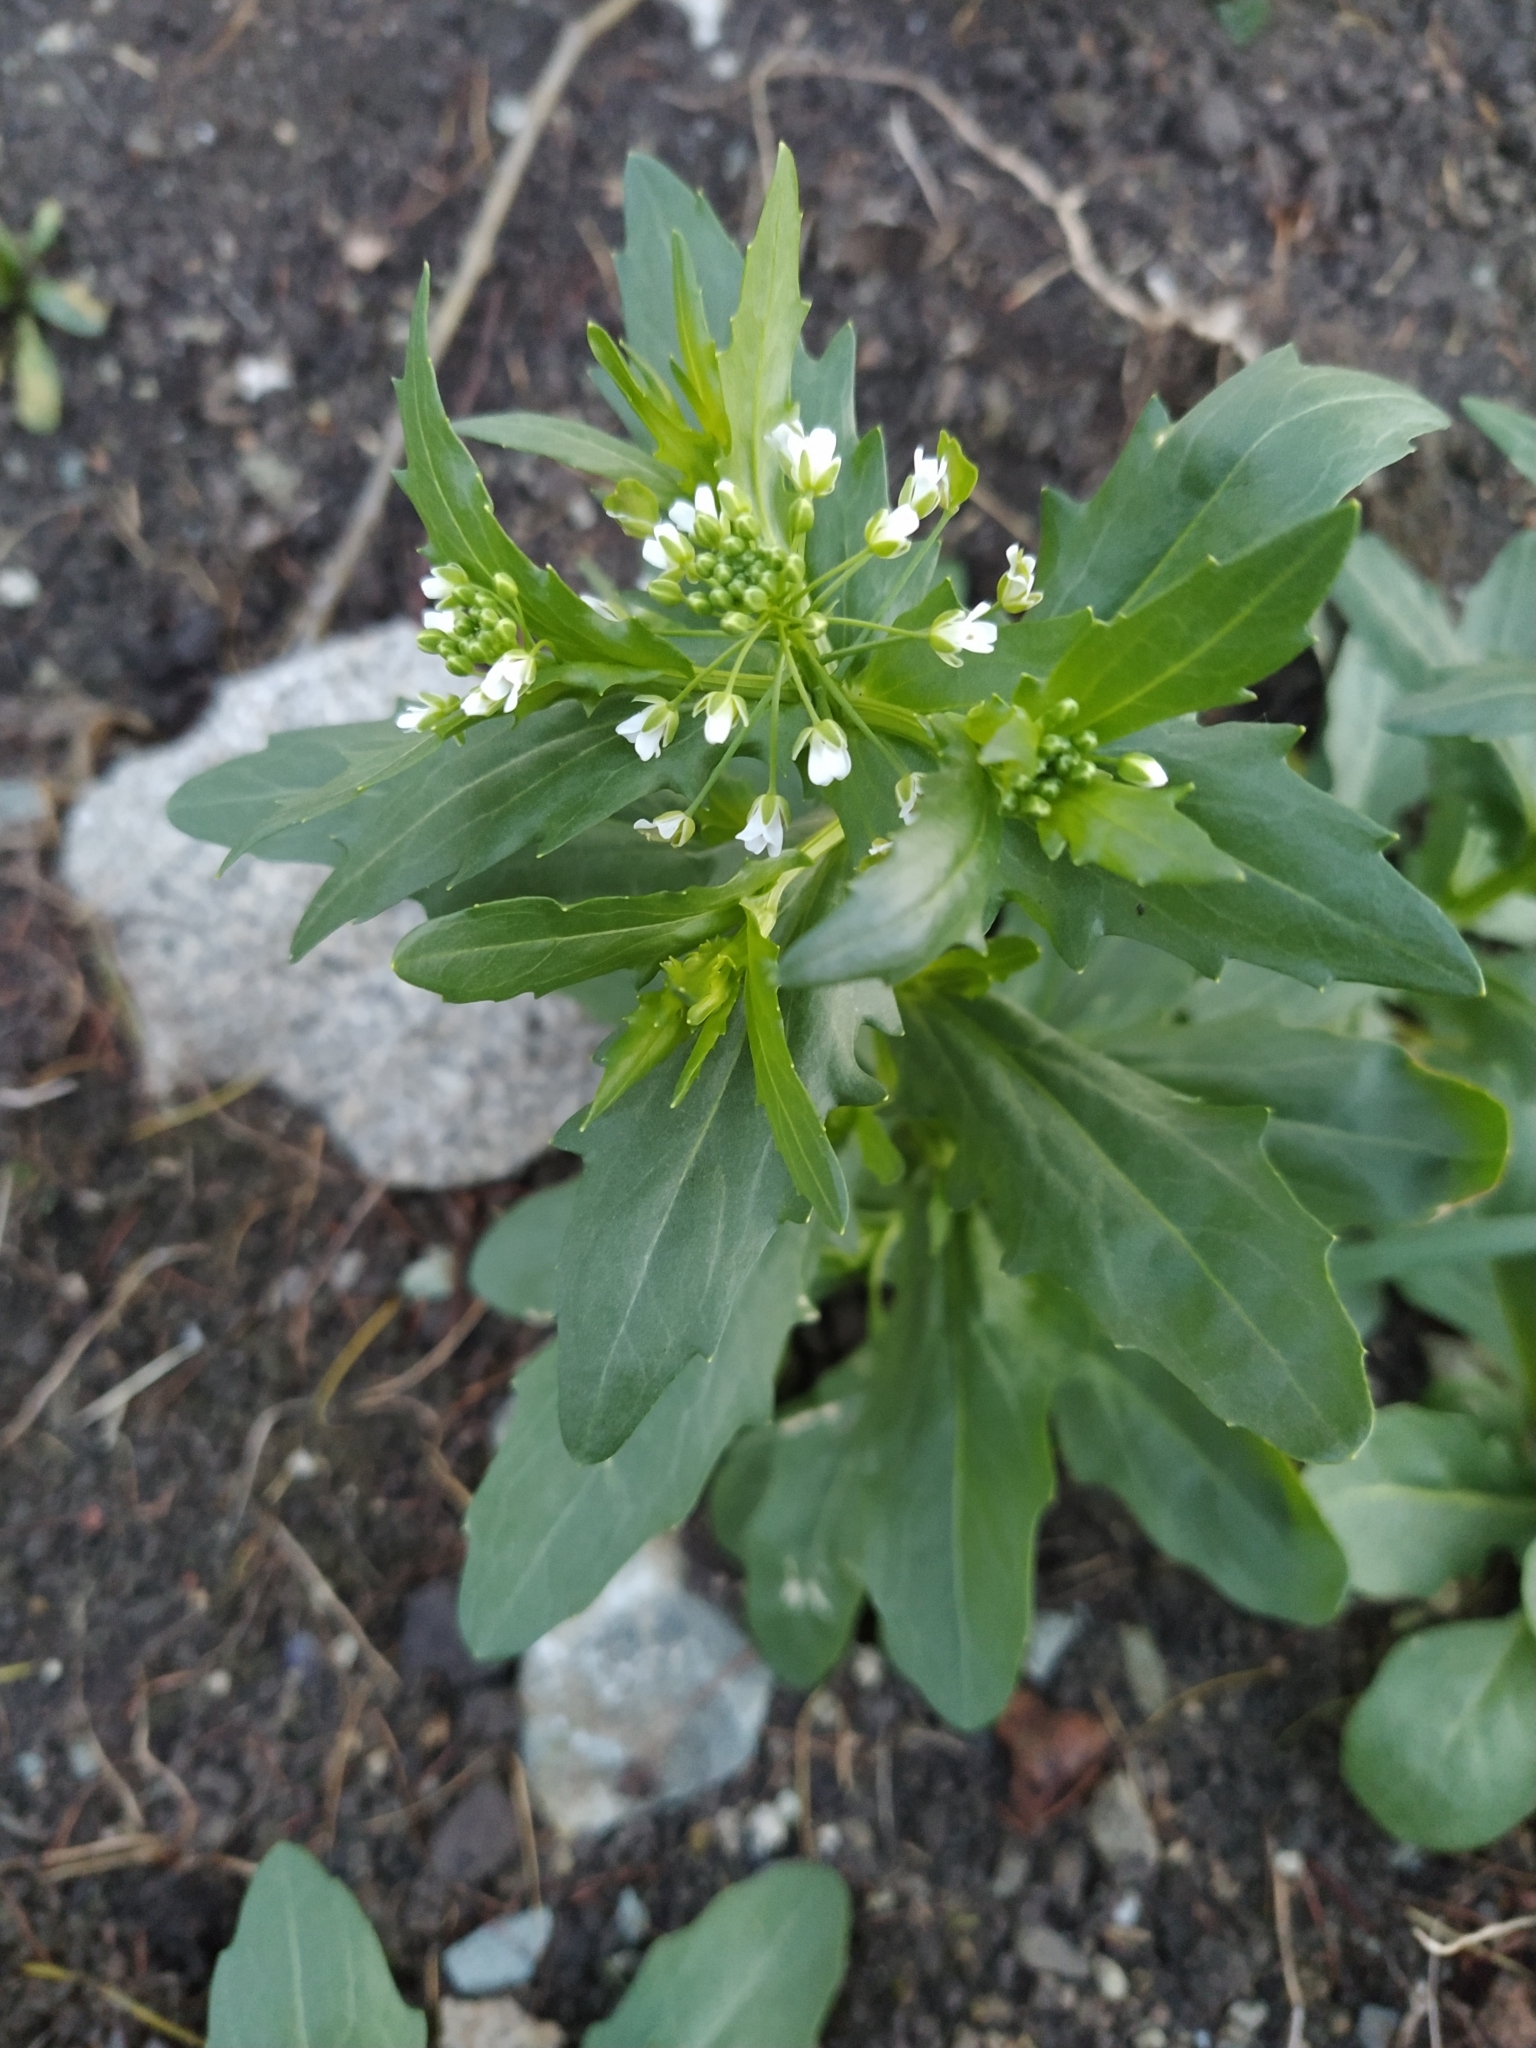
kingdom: Plantae
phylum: Tracheophyta
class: Magnoliopsida
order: Brassicales
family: Brassicaceae
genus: Thlaspi
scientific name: Thlaspi arvense
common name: Field pennycress
